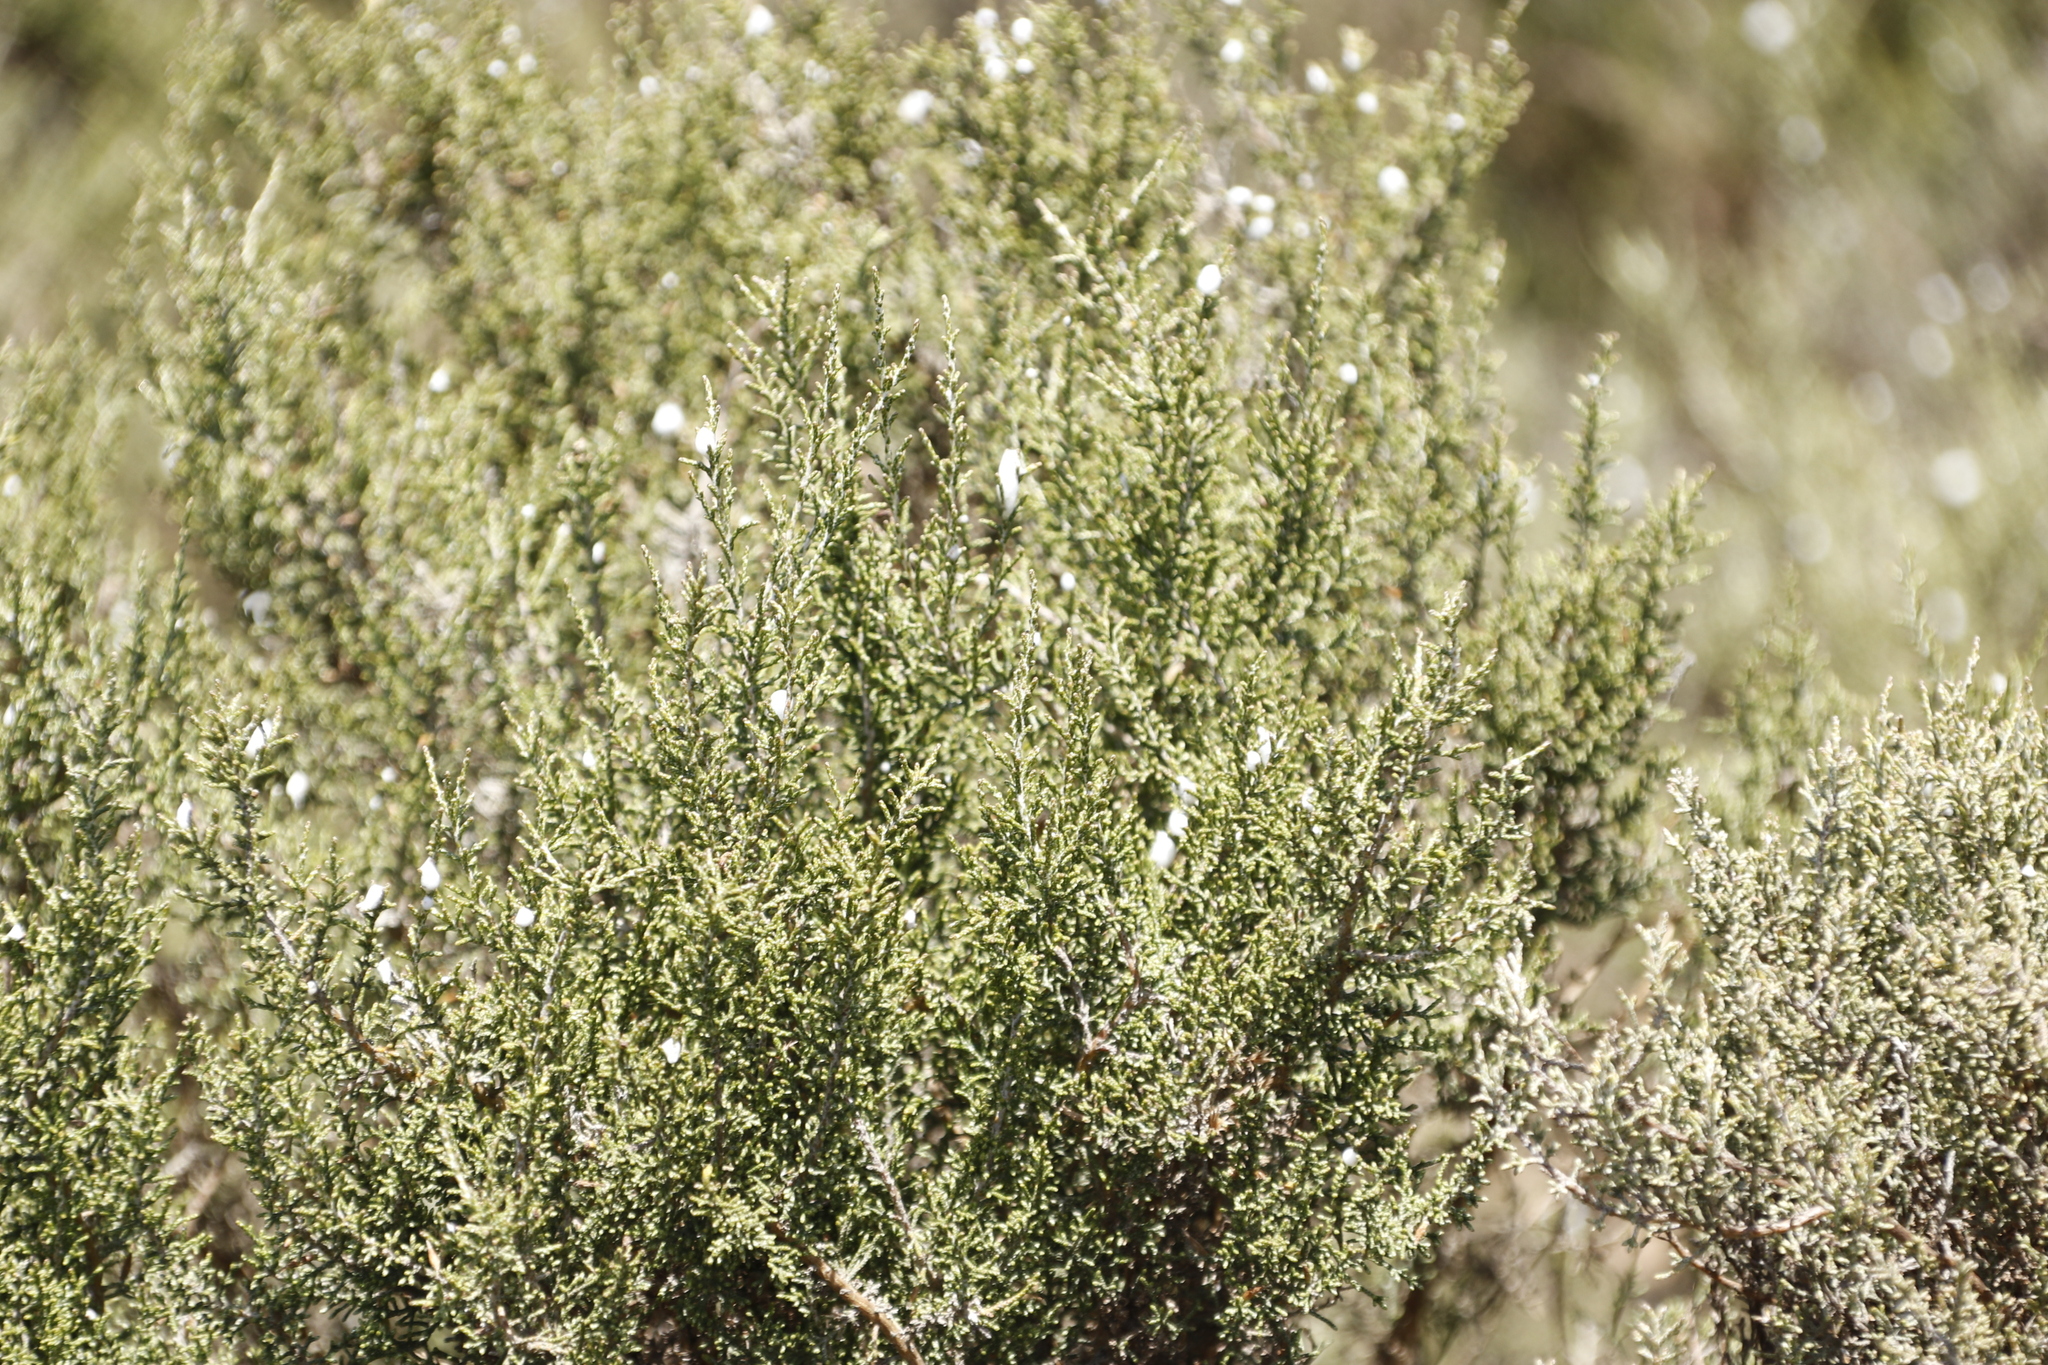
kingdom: Animalia
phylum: Arthropoda
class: Insecta
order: Hemiptera
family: Aphrophoridae
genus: Tremapterus
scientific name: Tremapterus
